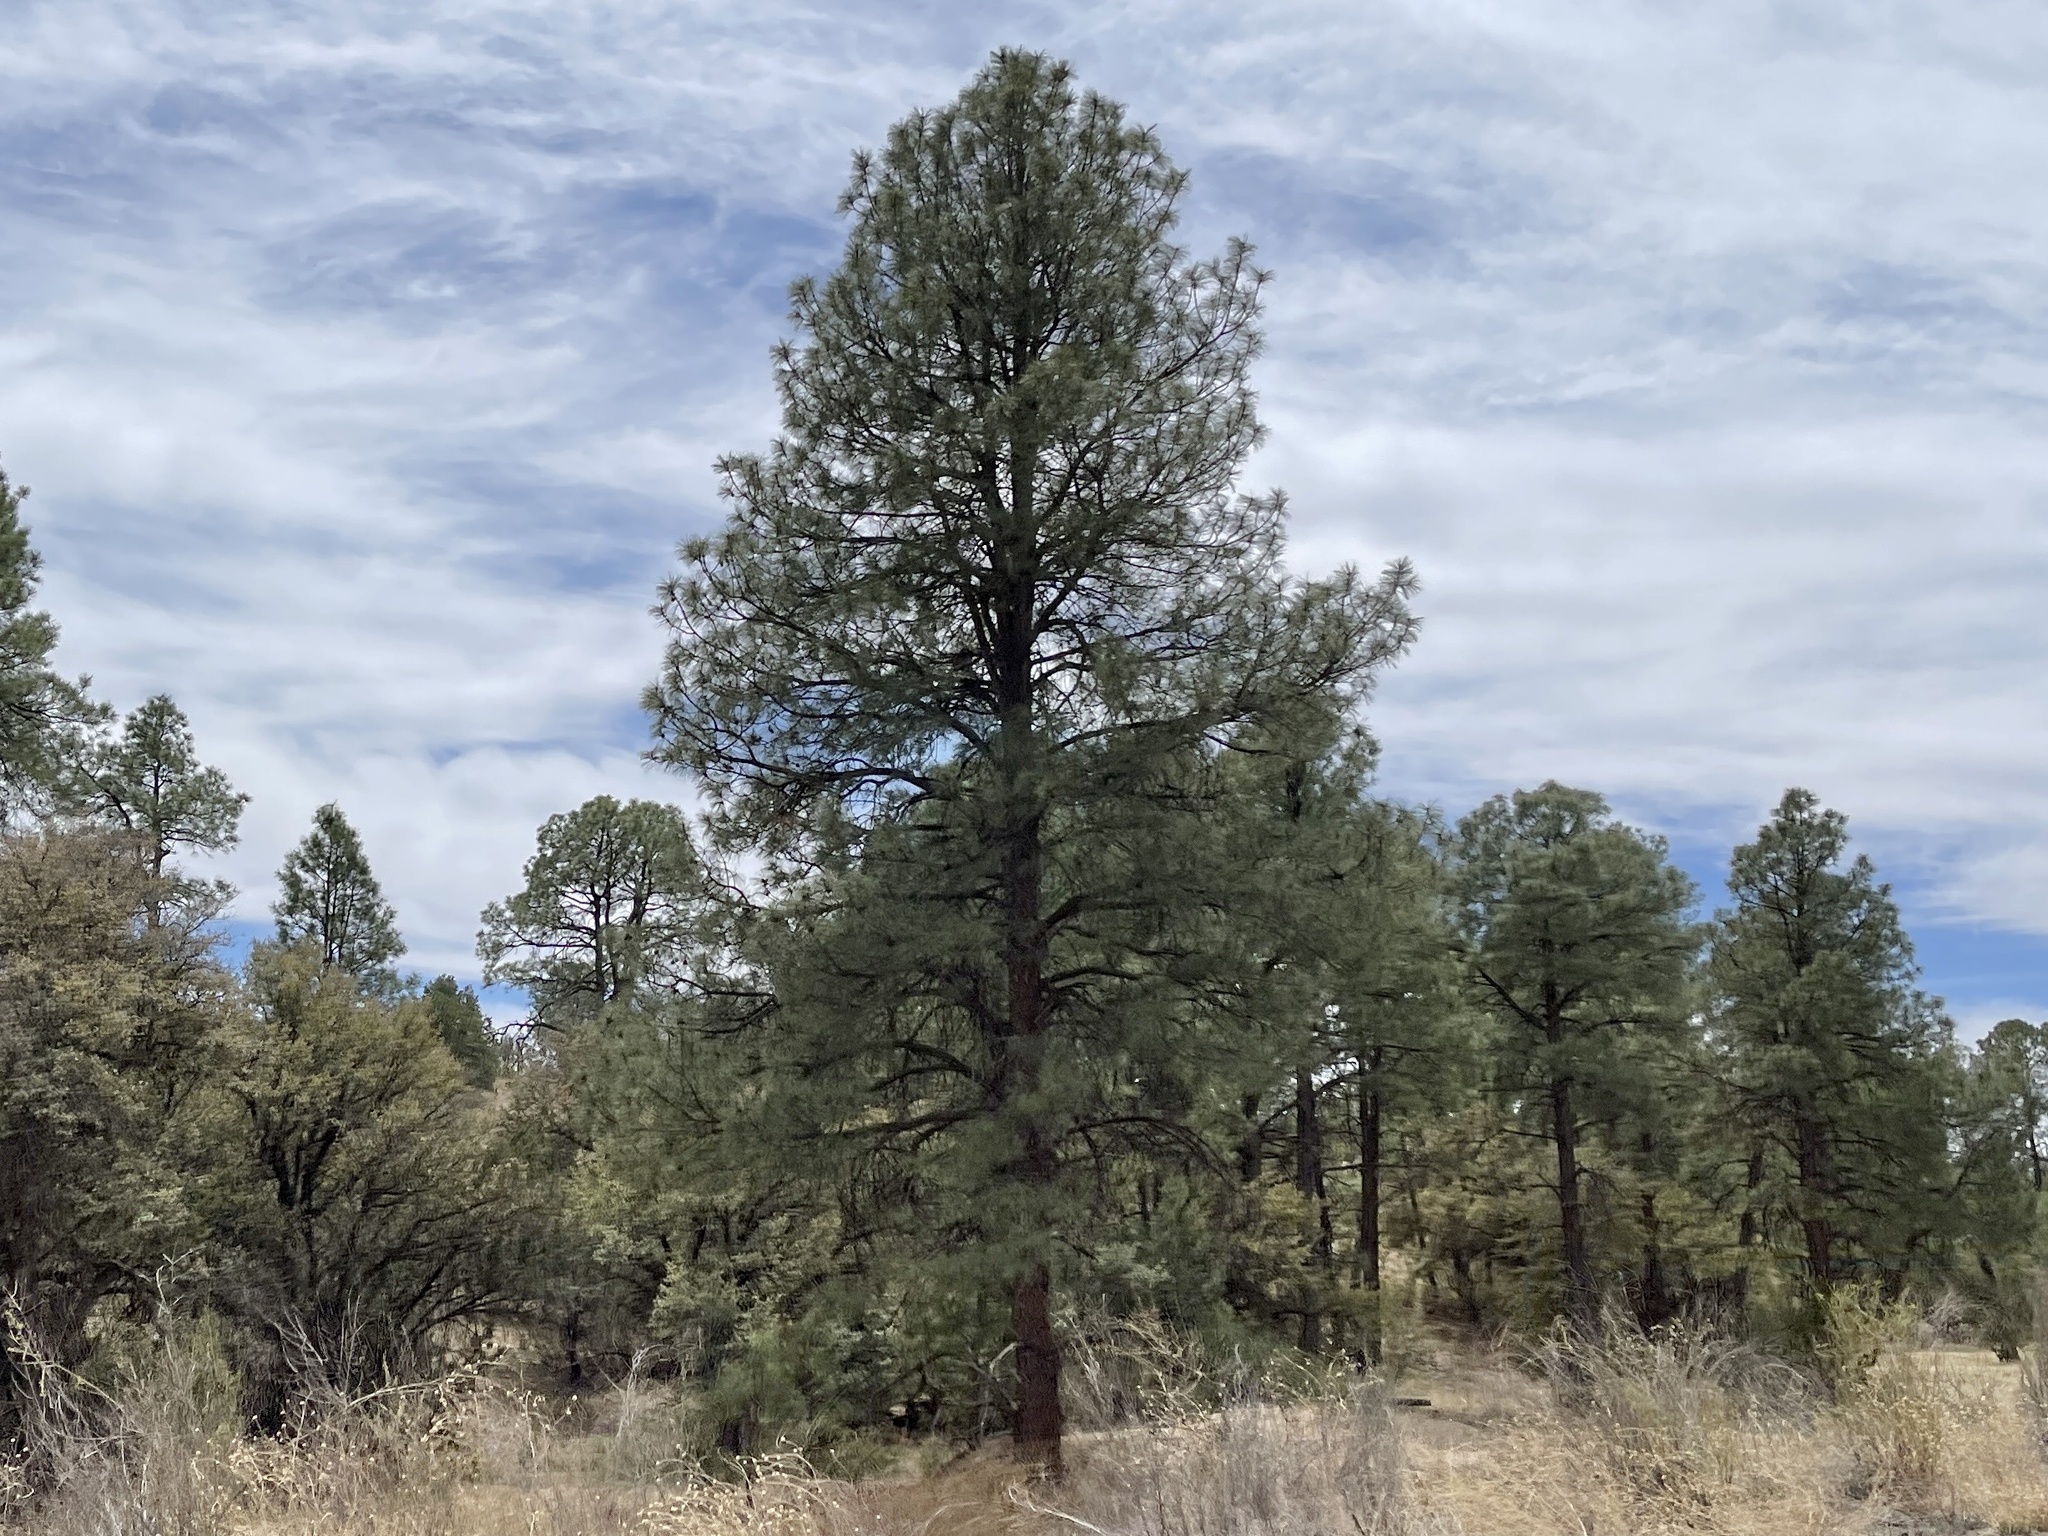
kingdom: Plantae
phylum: Tracheophyta
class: Pinopsida
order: Pinales
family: Pinaceae
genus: Pinus
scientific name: Pinus ponderosa
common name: Western yellow-pine
